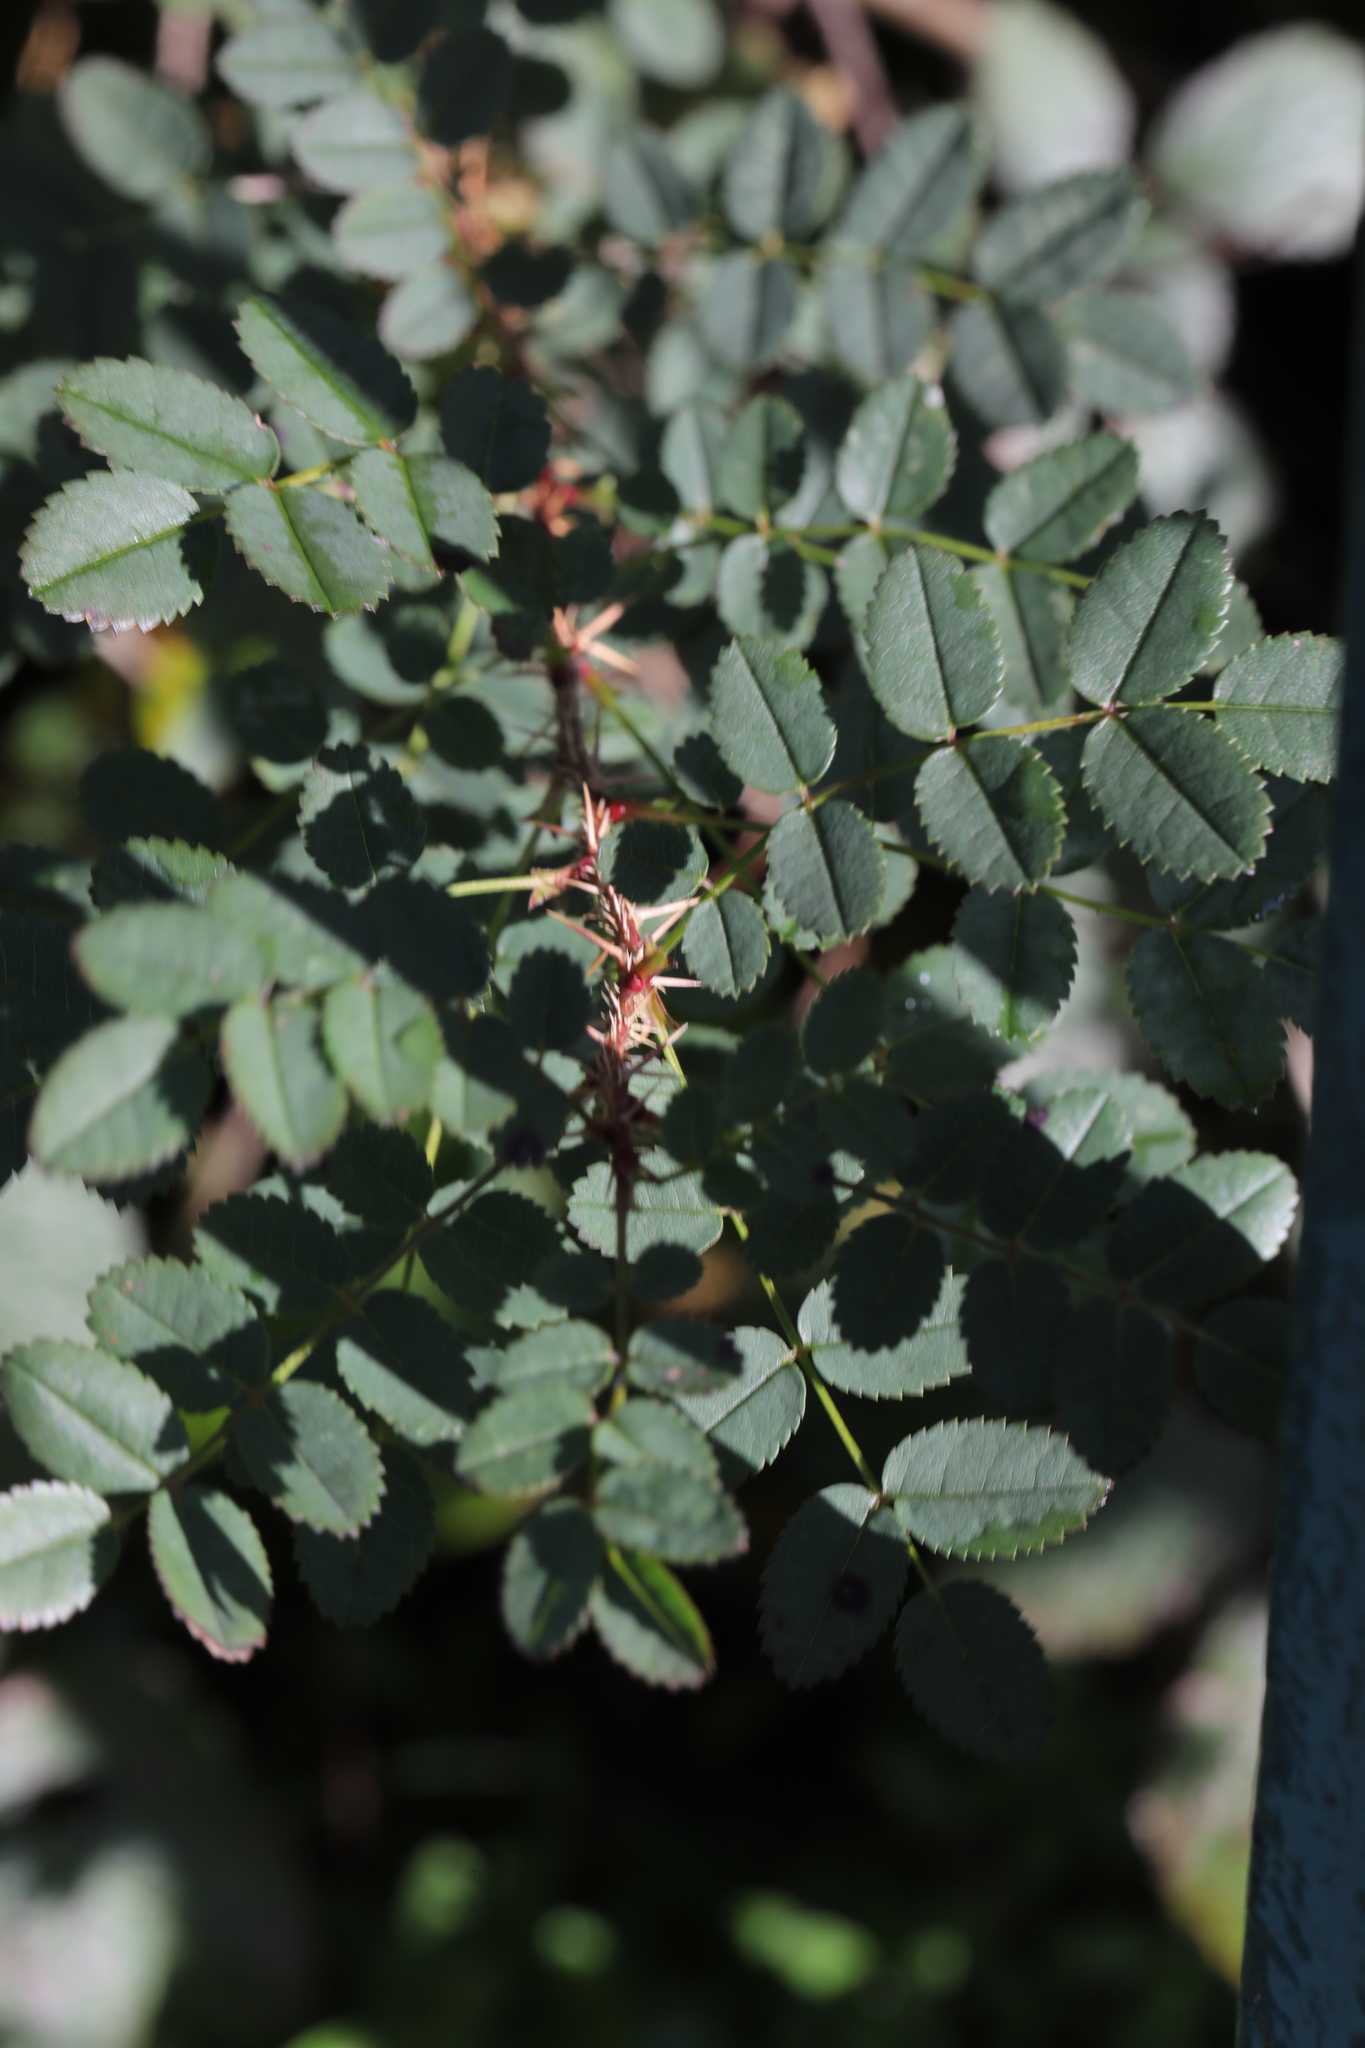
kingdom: Plantae
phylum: Tracheophyta
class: Magnoliopsida
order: Rosales
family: Rosaceae
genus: Rosa
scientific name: Rosa spinosissima
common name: Burnet rose
